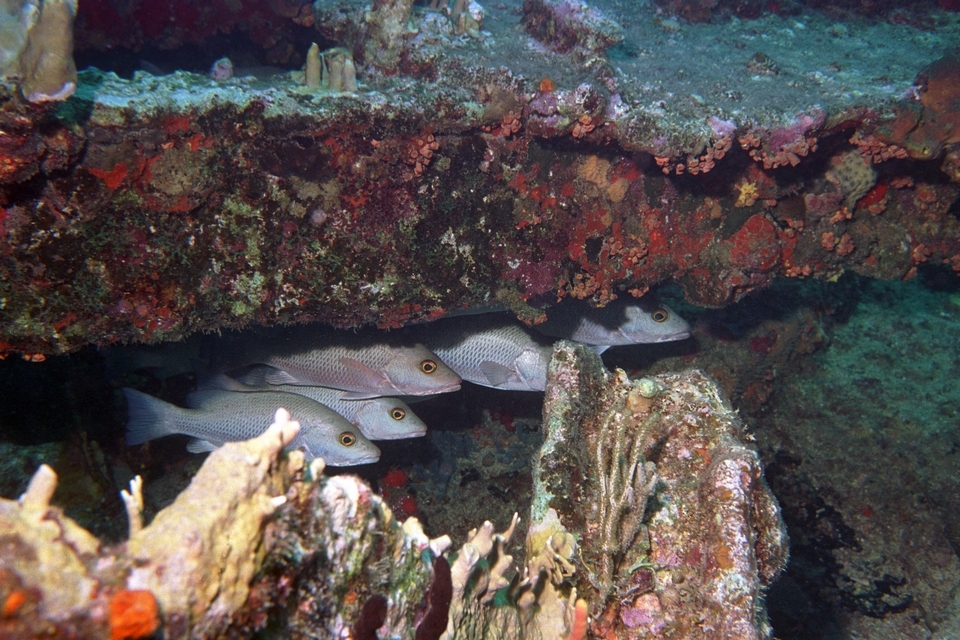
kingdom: Animalia
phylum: Chordata
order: Perciformes
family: Lutjanidae
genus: Lutjanus
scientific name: Lutjanus griseus
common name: Gray snapper
